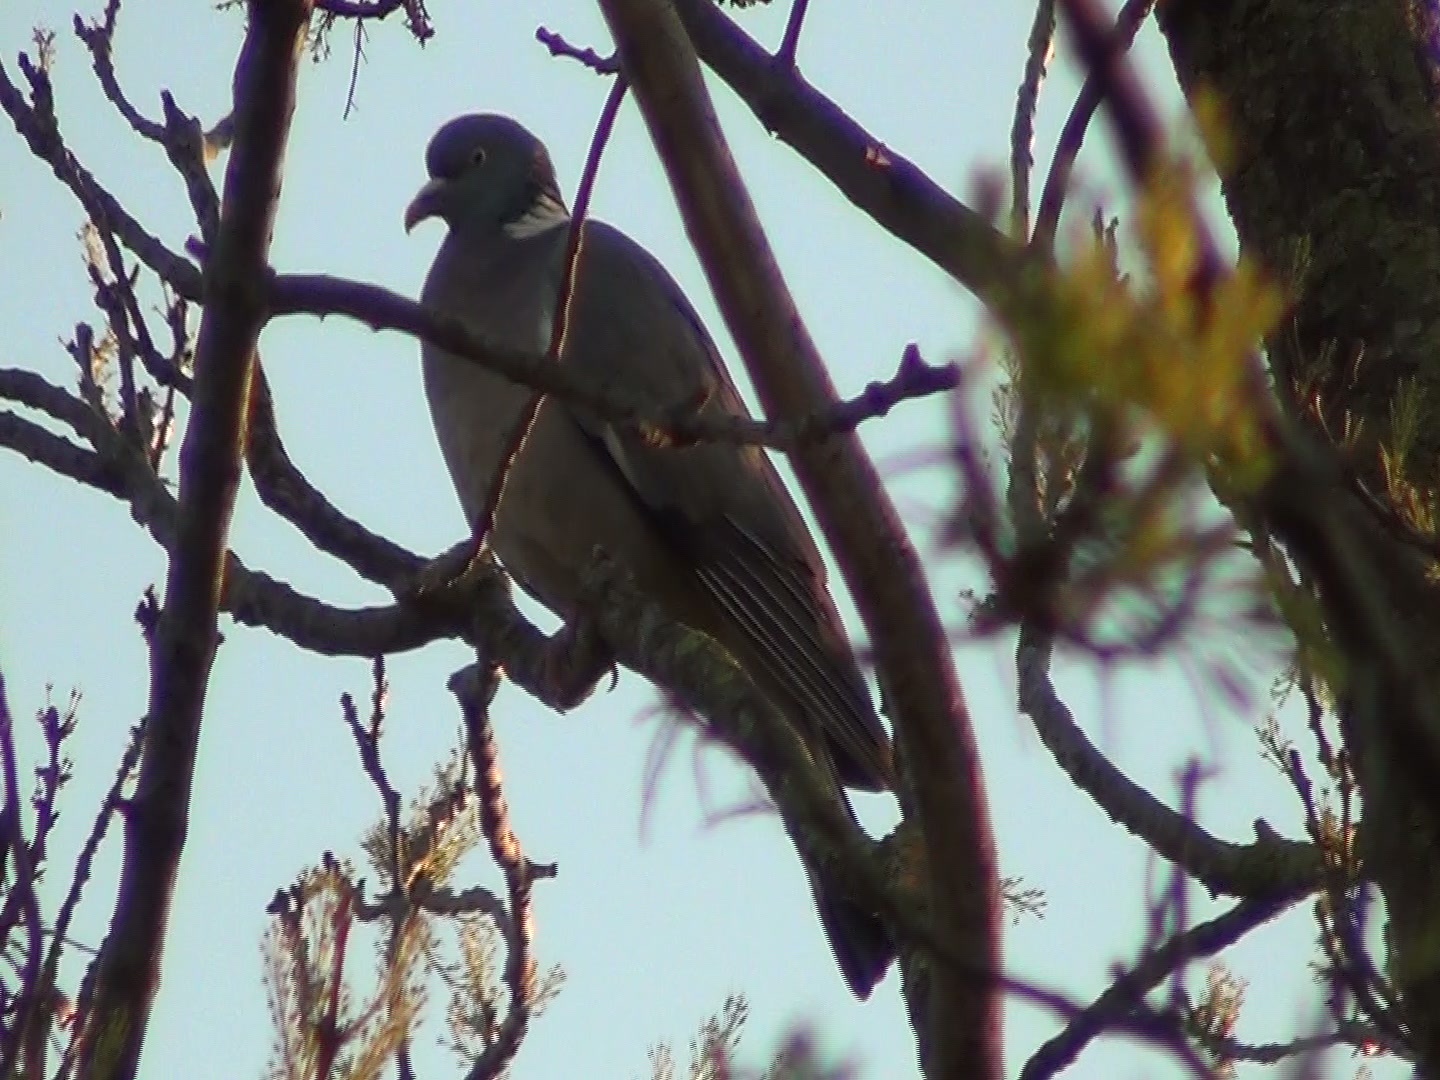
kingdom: Animalia
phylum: Chordata
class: Aves
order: Columbiformes
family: Columbidae
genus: Columba
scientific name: Columba palumbus
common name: Common wood pigeon
